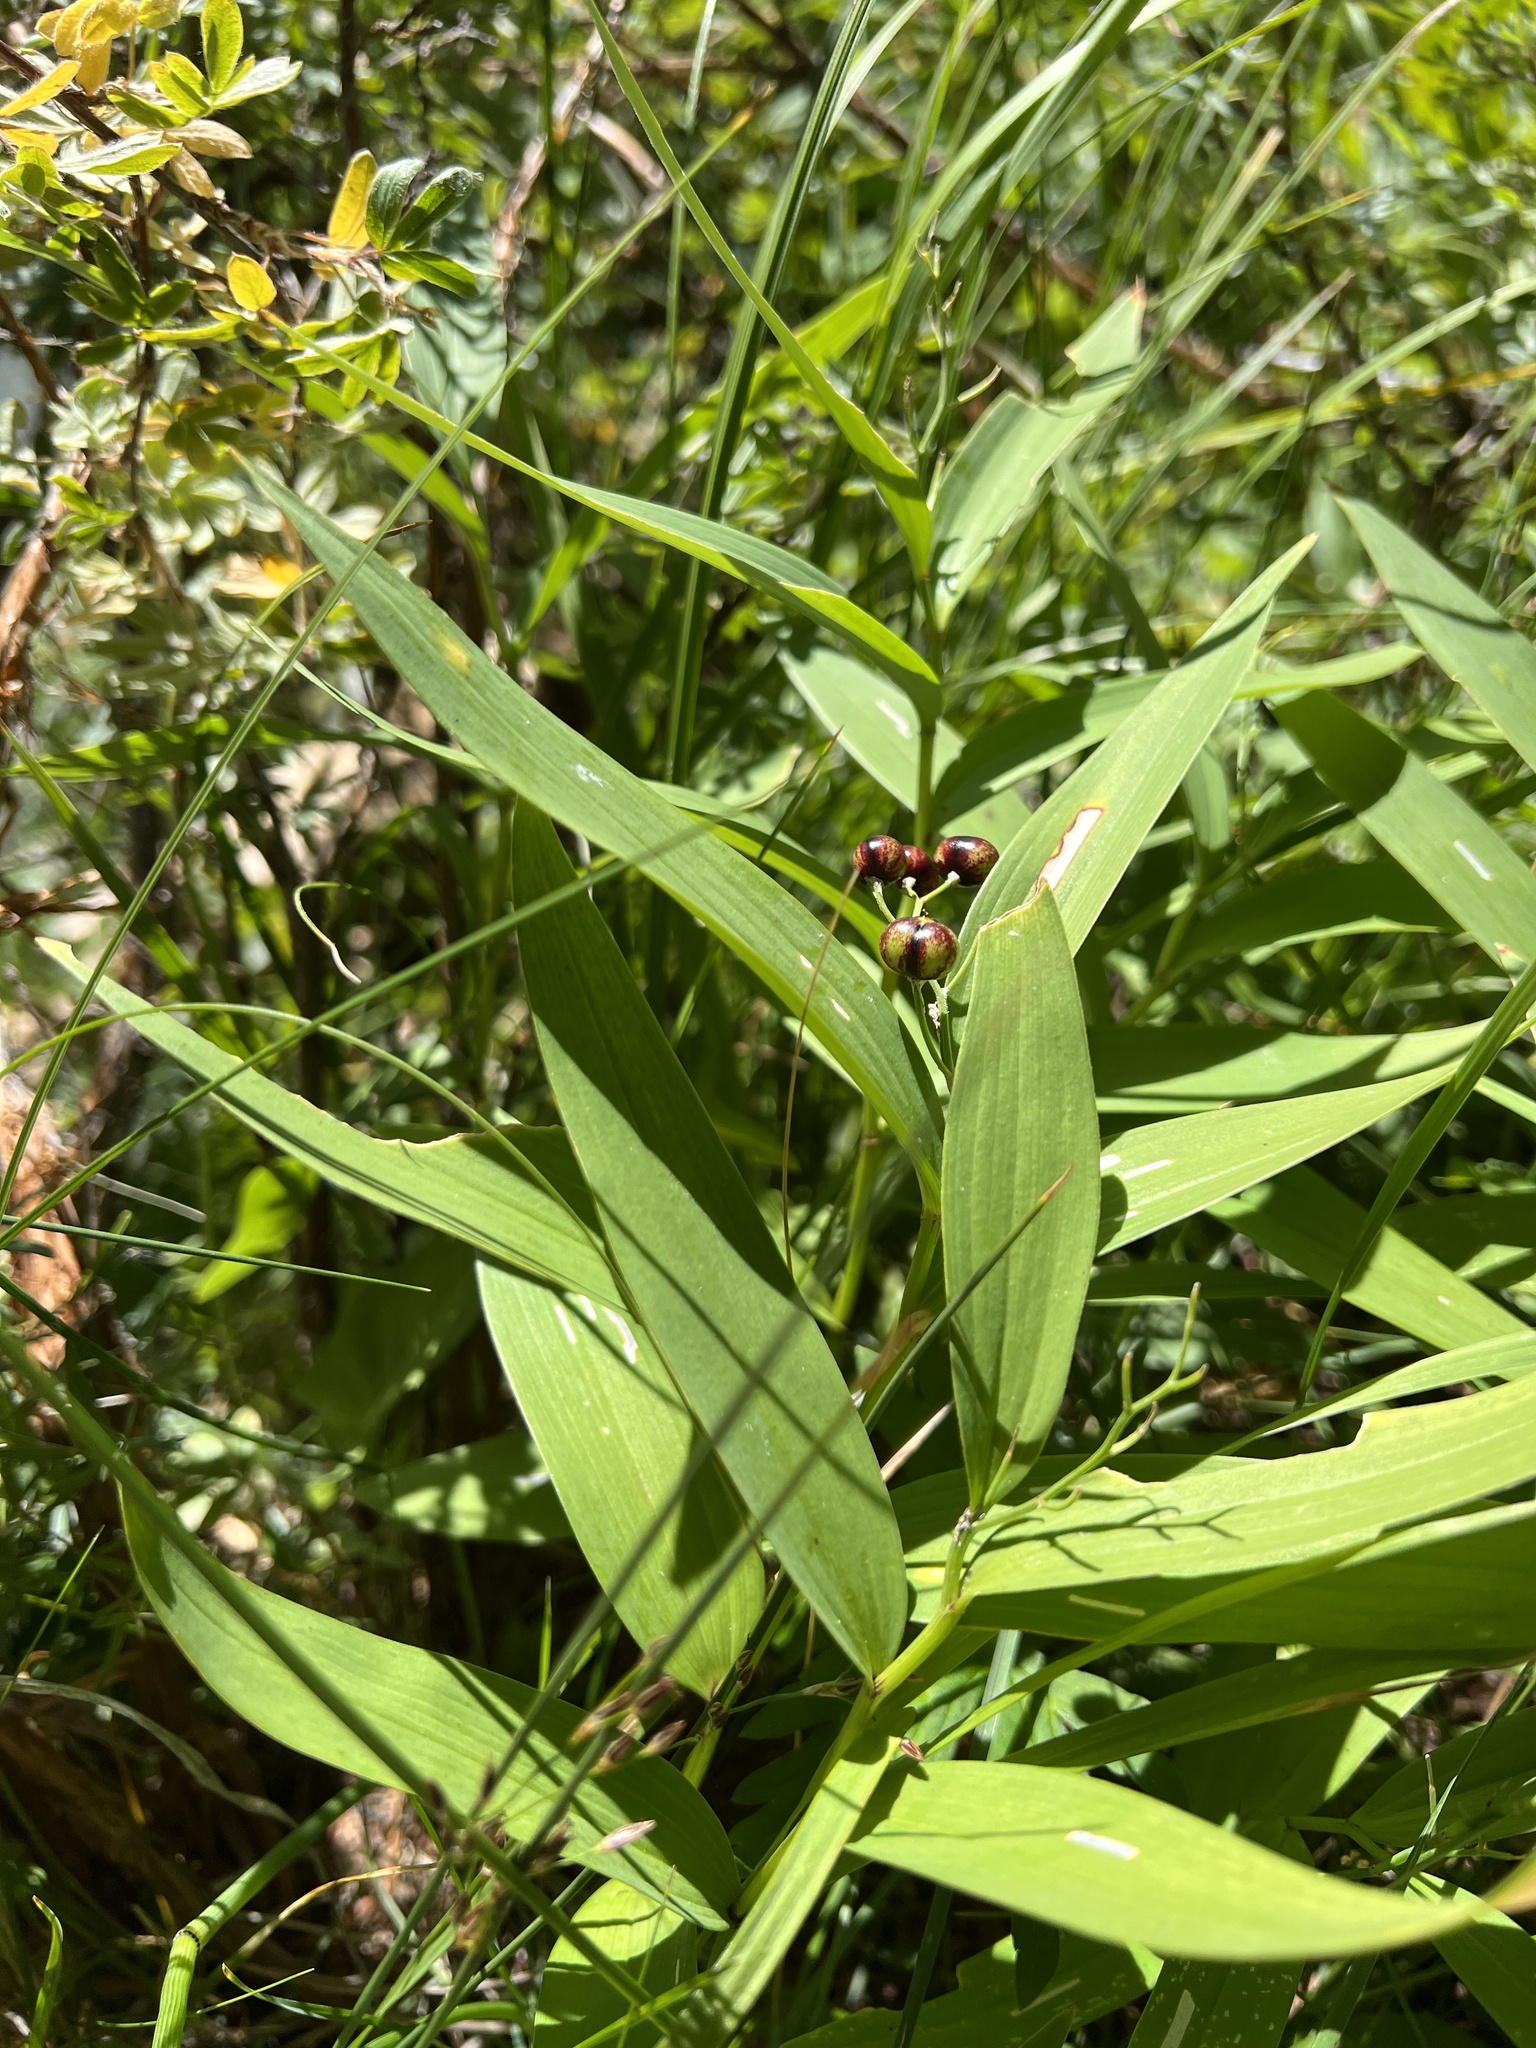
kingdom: Plantae
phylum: Tracheophyta
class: Liliopsida
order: Asparagales
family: Asparagaceae
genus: Maianthemum
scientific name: Maianthemum stellatum
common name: Little false solomon's seal
